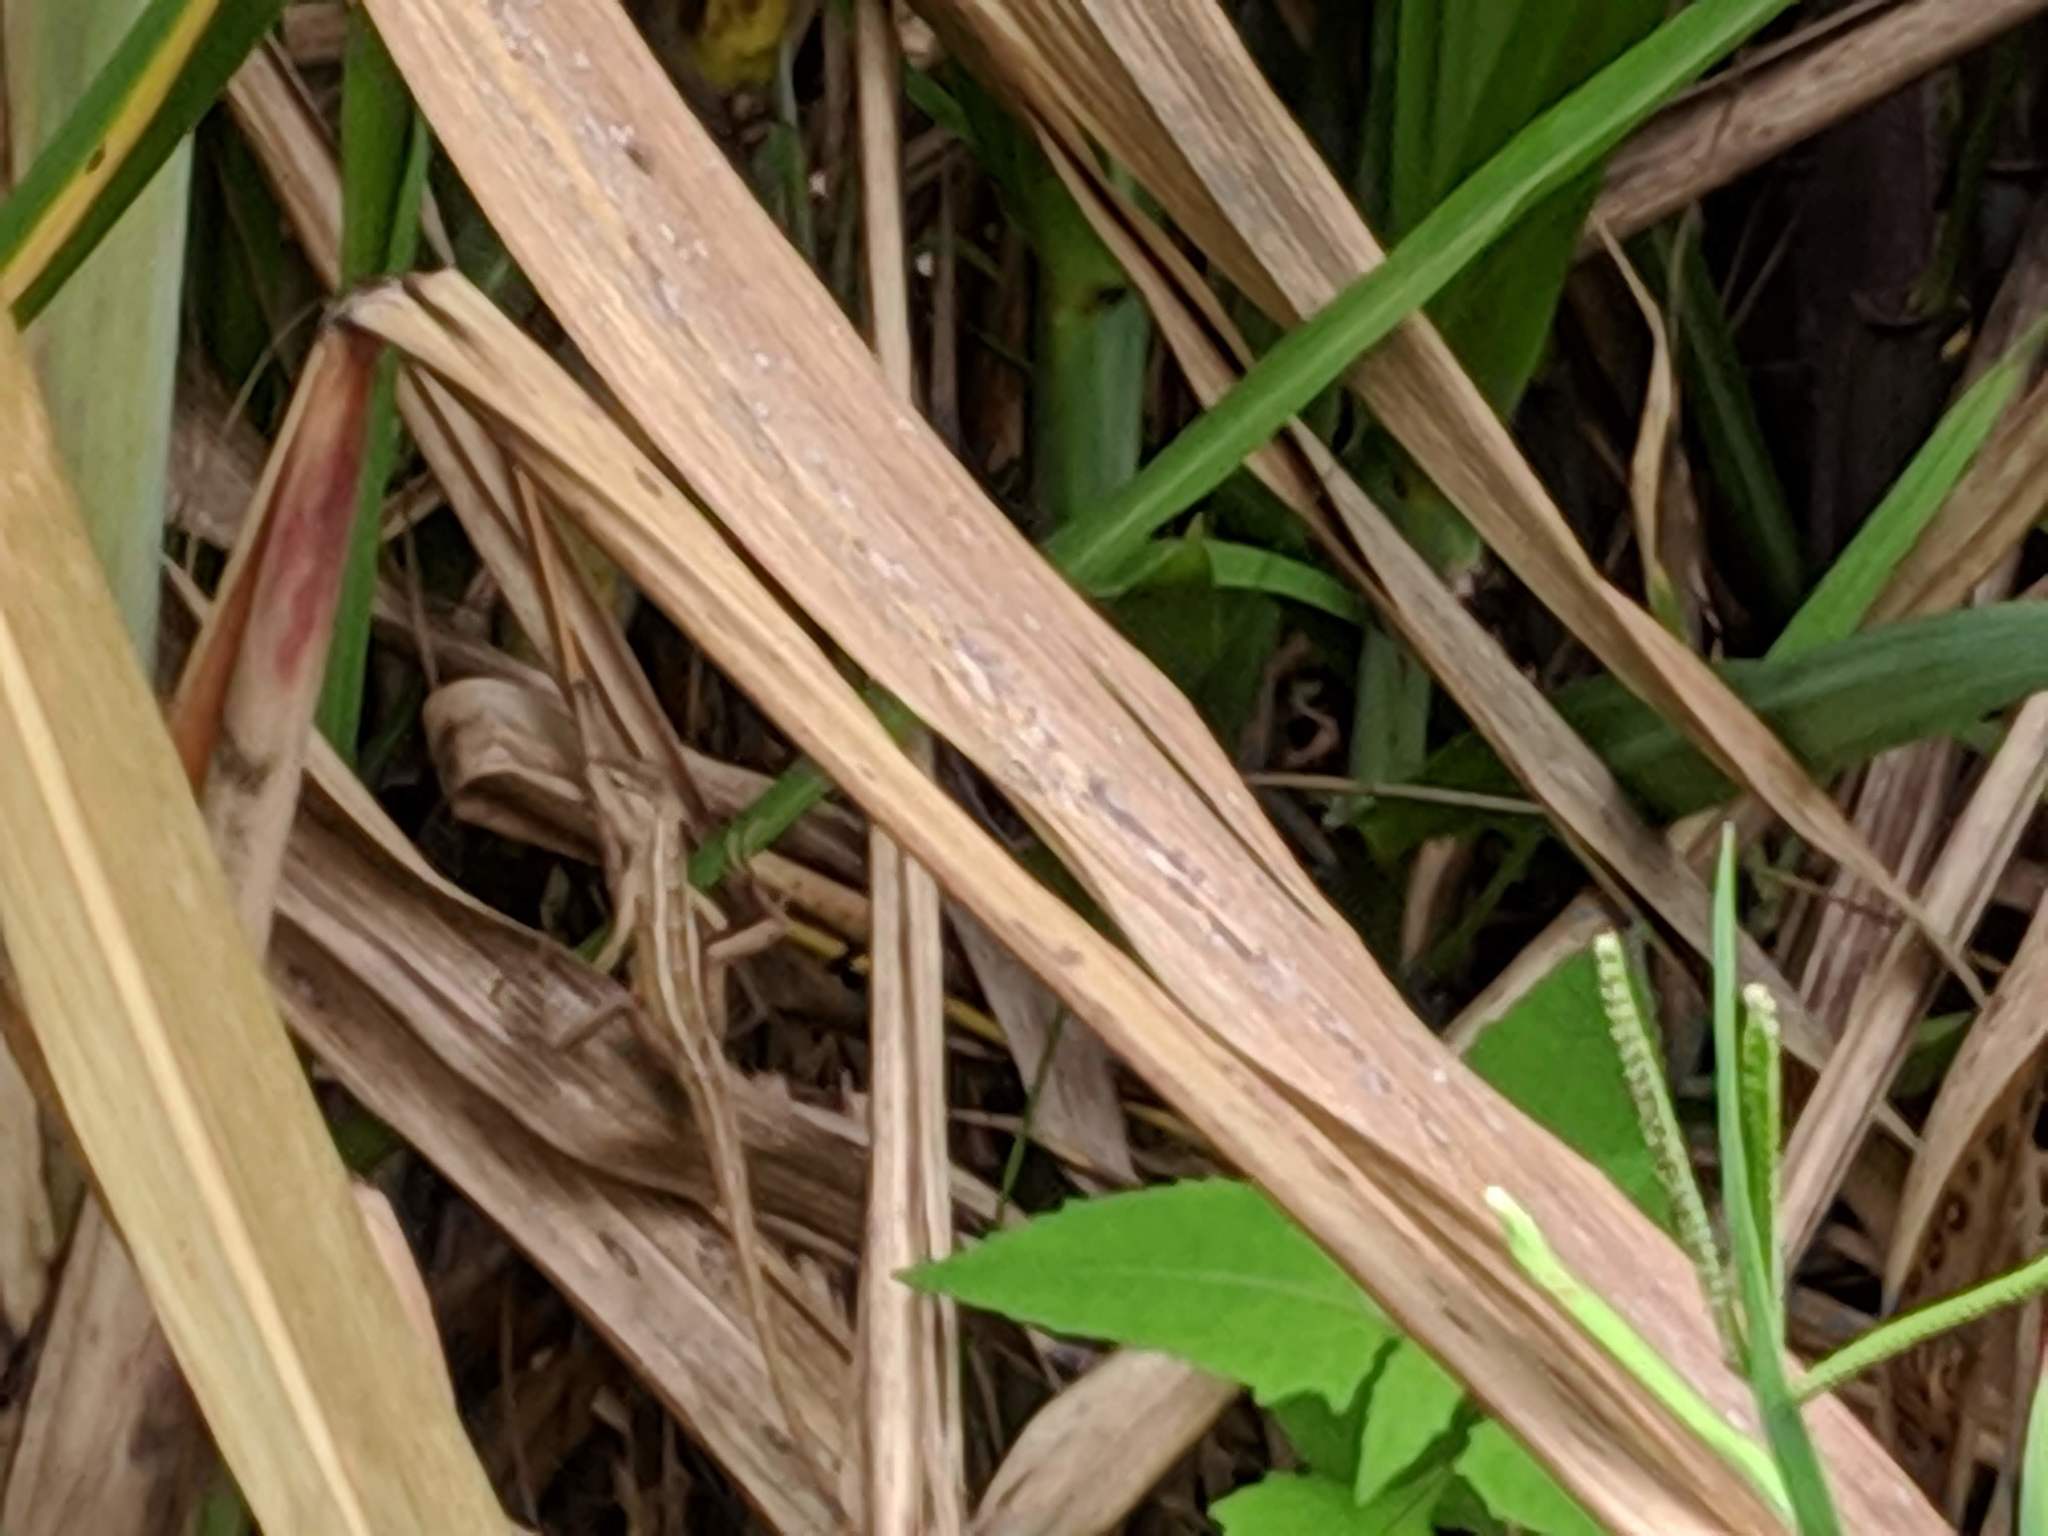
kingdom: Animalia
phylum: Chordata
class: Squamata
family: Agamidae
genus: Calotes
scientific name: Calotes versicolor
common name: Oriental garden lizard
